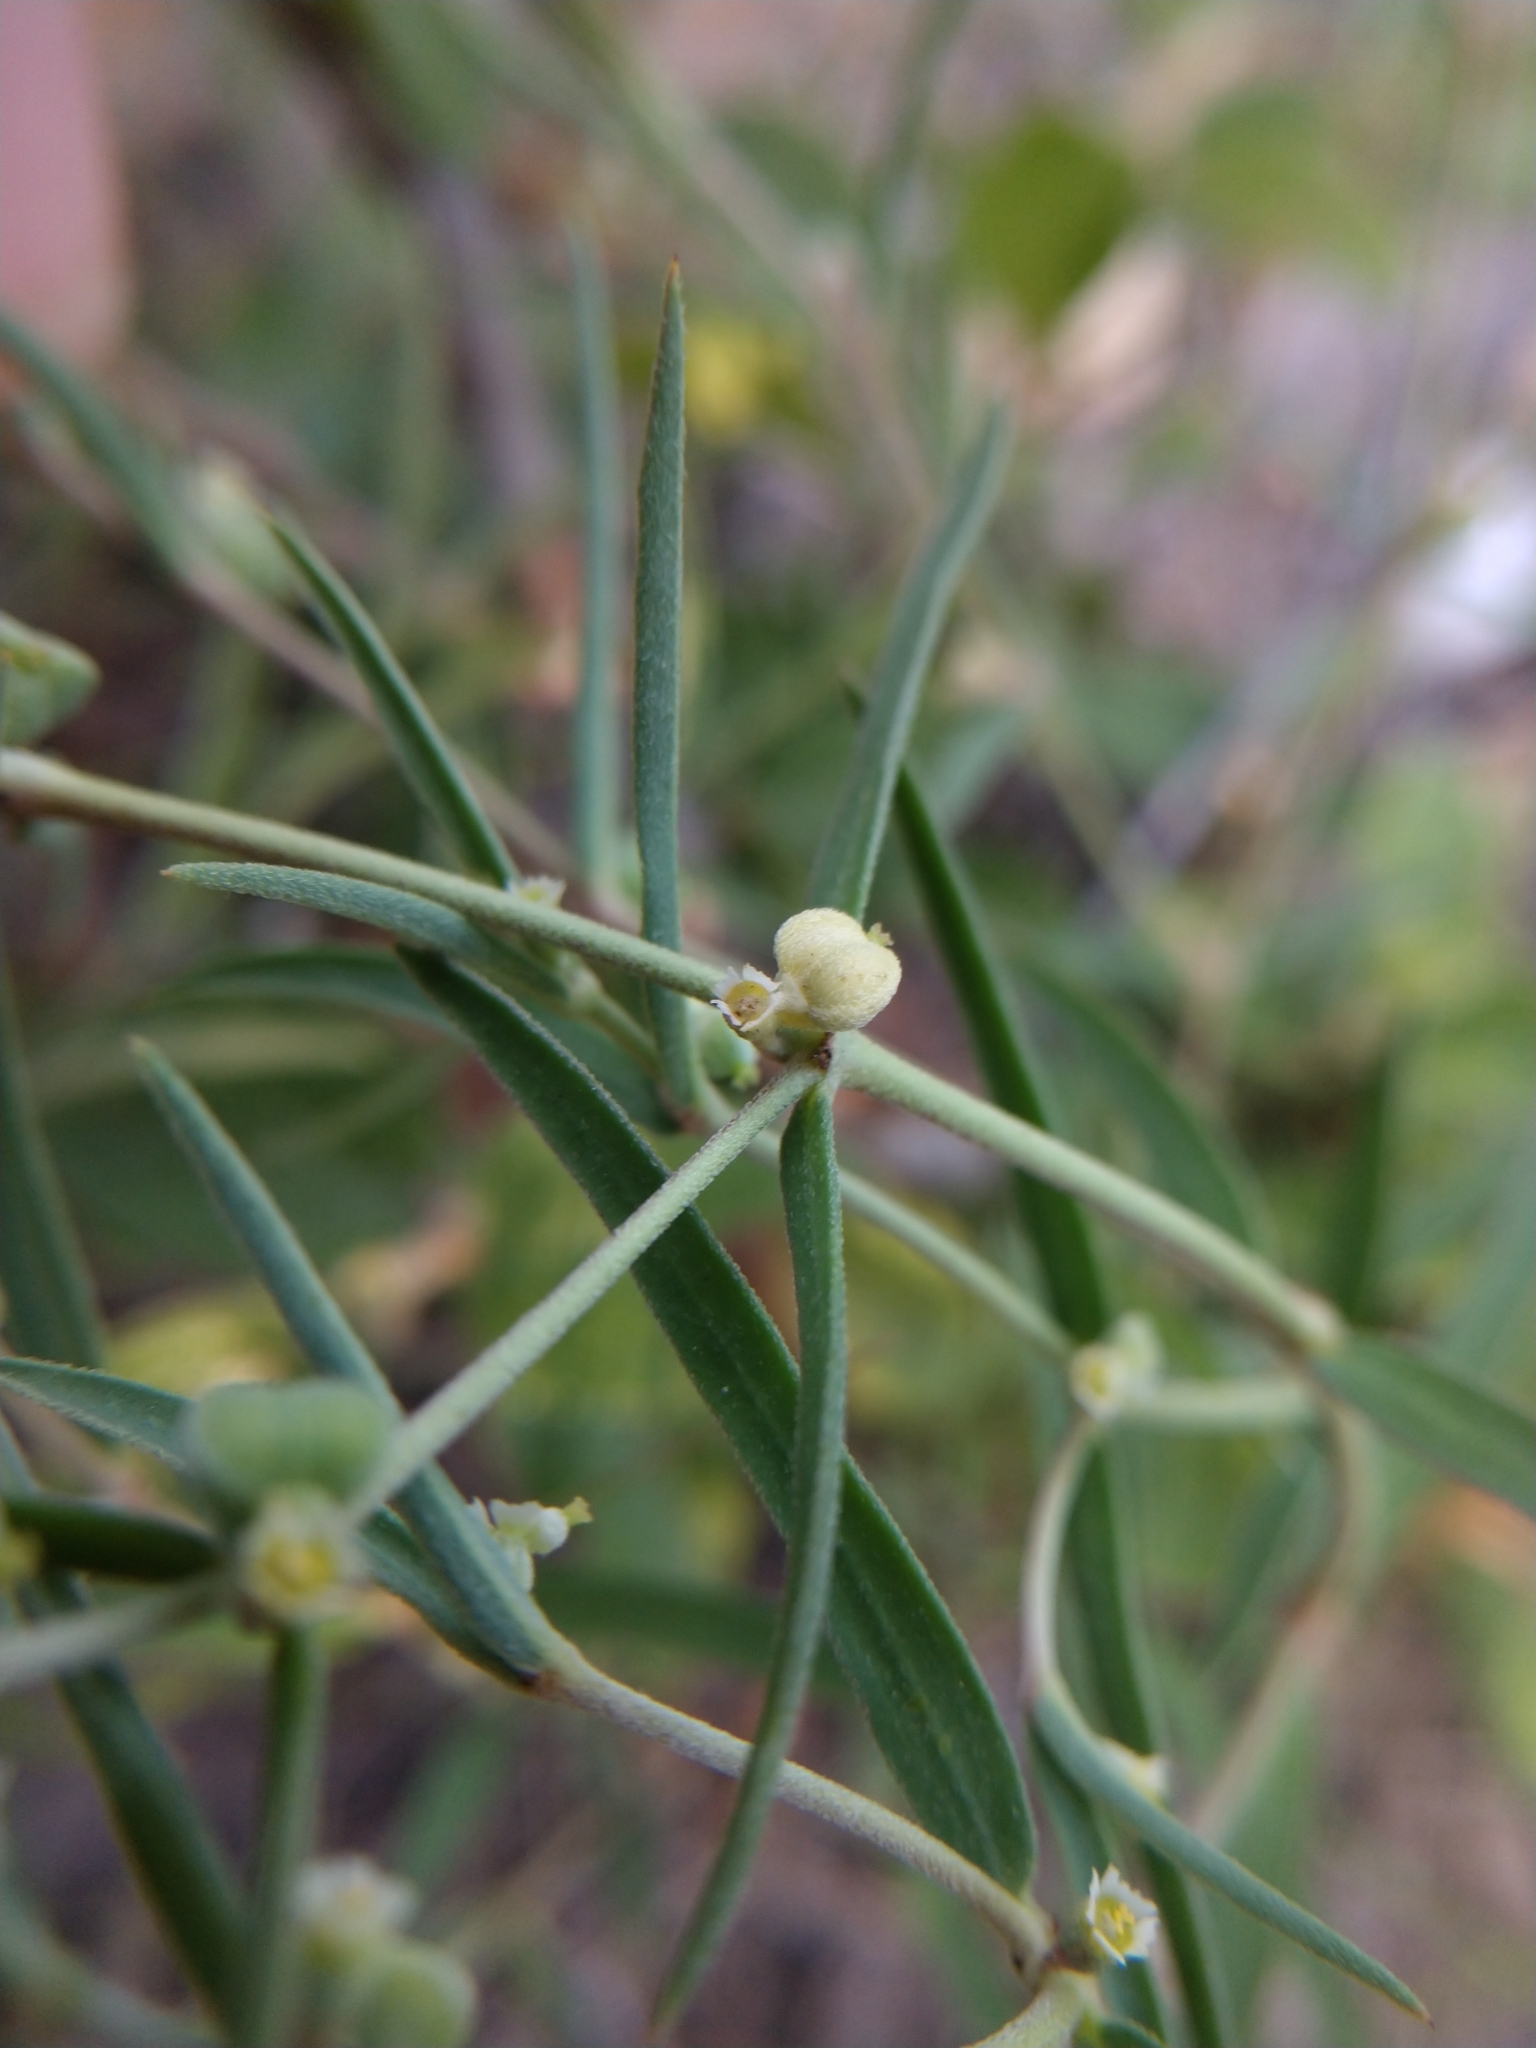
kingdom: Plantae
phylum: Tracheophyta
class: Magnoliopsida
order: Malpighiales
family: Euphorbiaceae
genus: Euphorbia
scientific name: Euphorbia angusta
